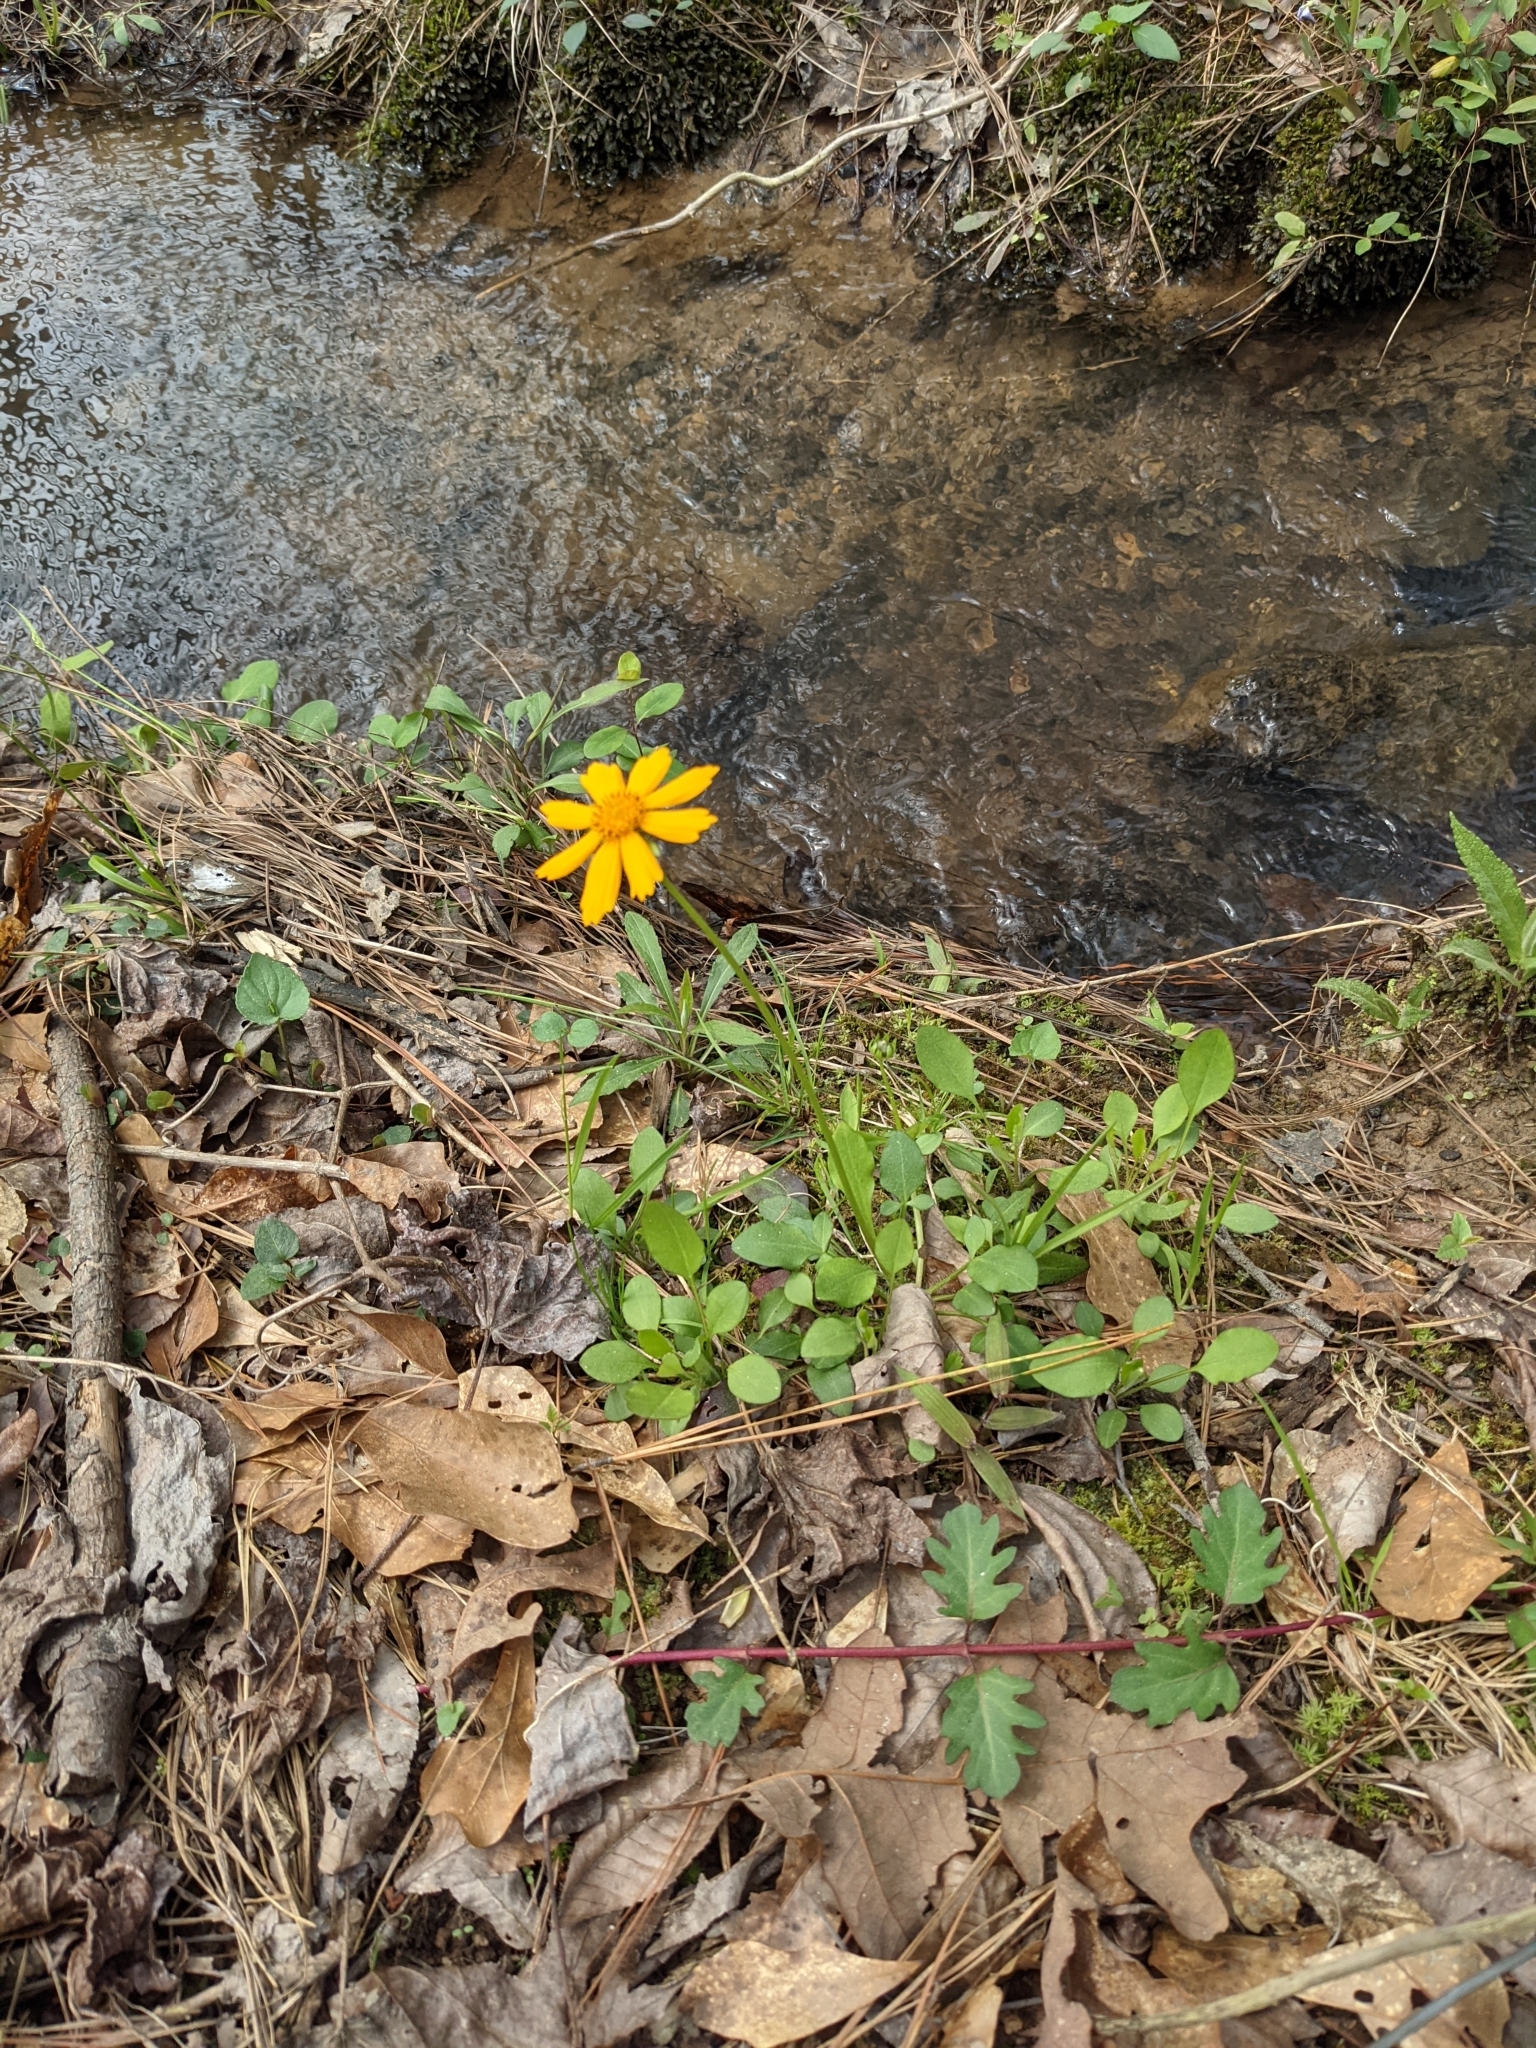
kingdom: Plantae
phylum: Tracheophyta
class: Magnoliopsida
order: Asterales
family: Asteraceae
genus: Coreopsis
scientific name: Coreopsis auriculata
